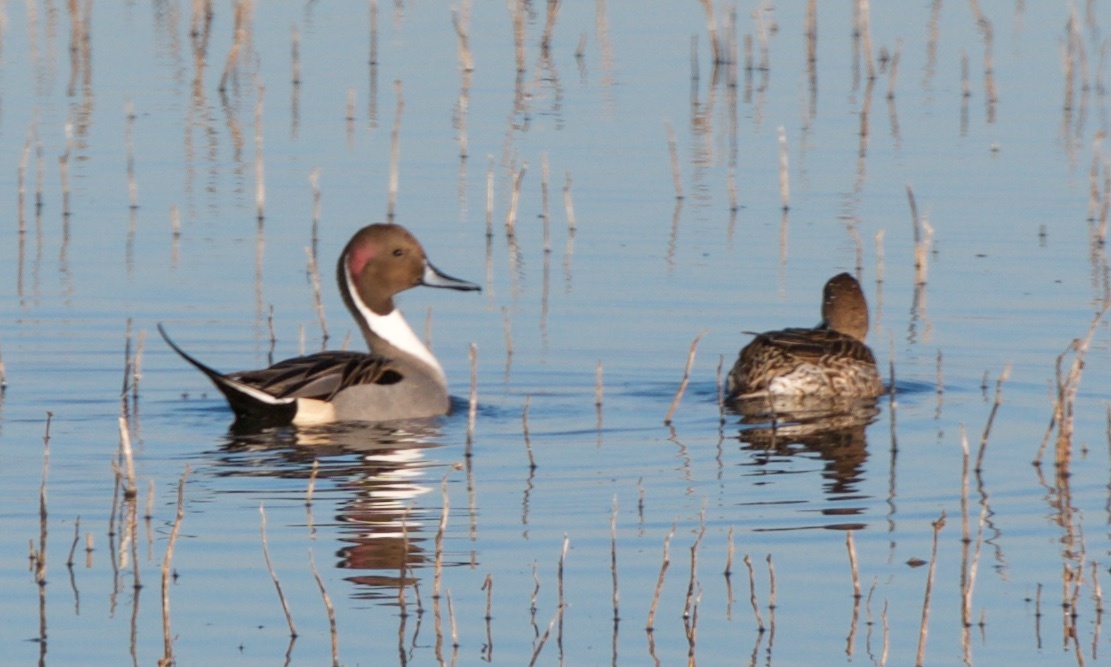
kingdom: Animalia
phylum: Chordata
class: Aves
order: Anseriformes
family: Anatidae
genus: Anas
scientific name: Anas acuta
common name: Northern pintail
